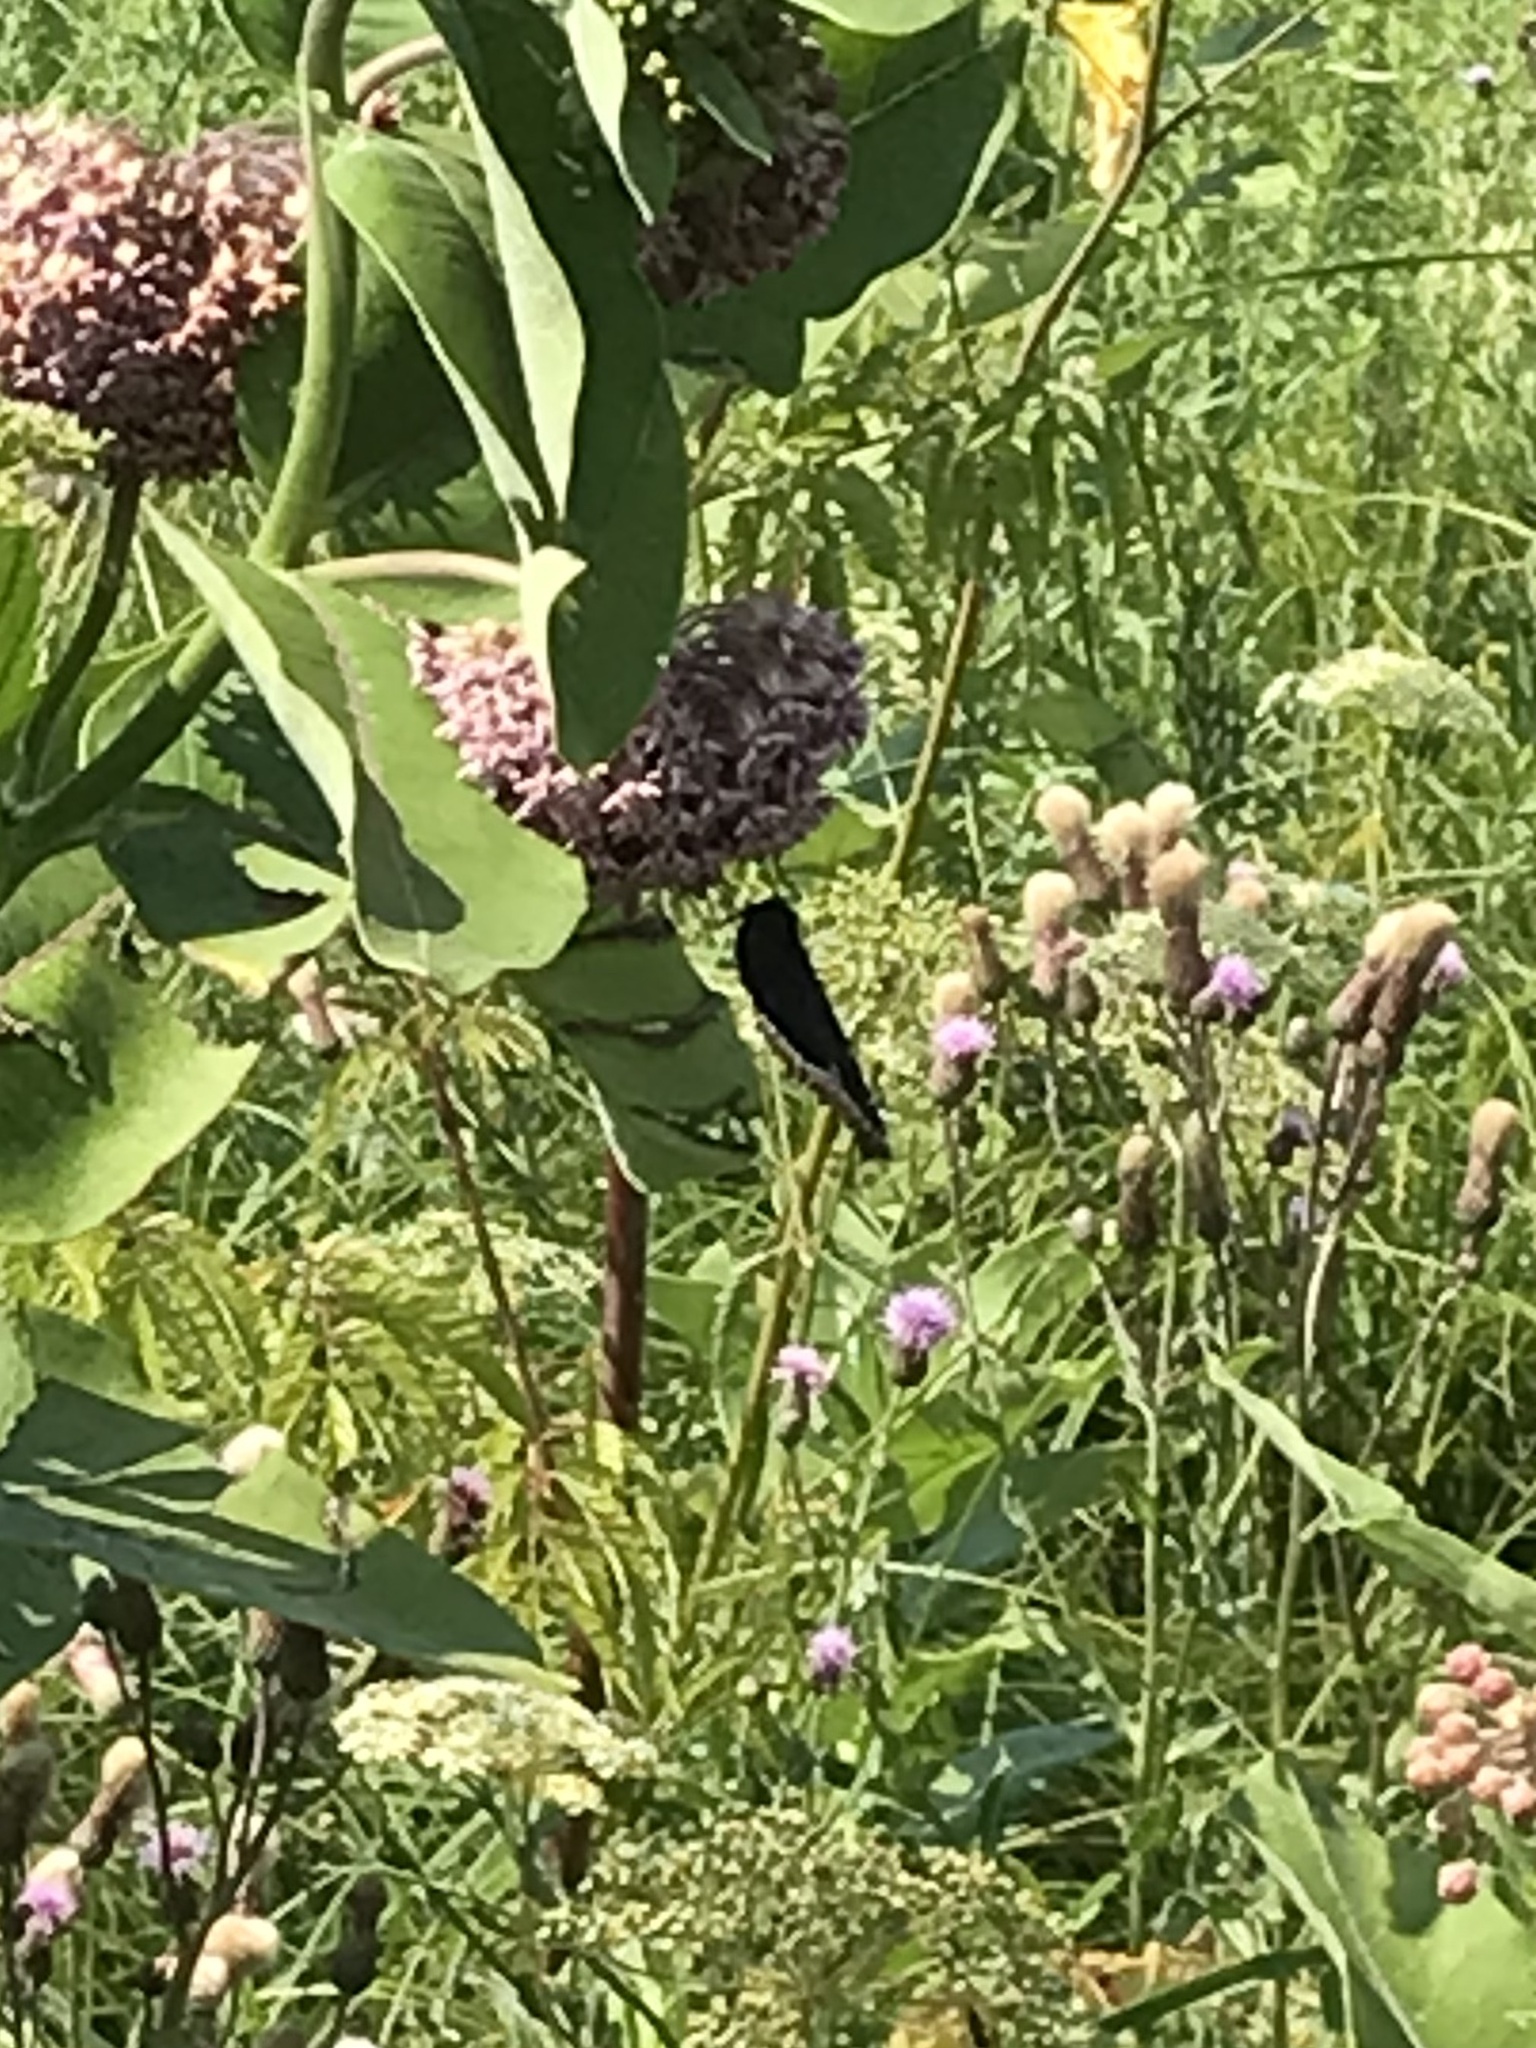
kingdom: Animalia
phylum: Arthropoda
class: Insecta
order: Lepidoptera
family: Nymphalidae
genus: Nymphalis
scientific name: Nymphalis antiopa
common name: Camberwell beauty
